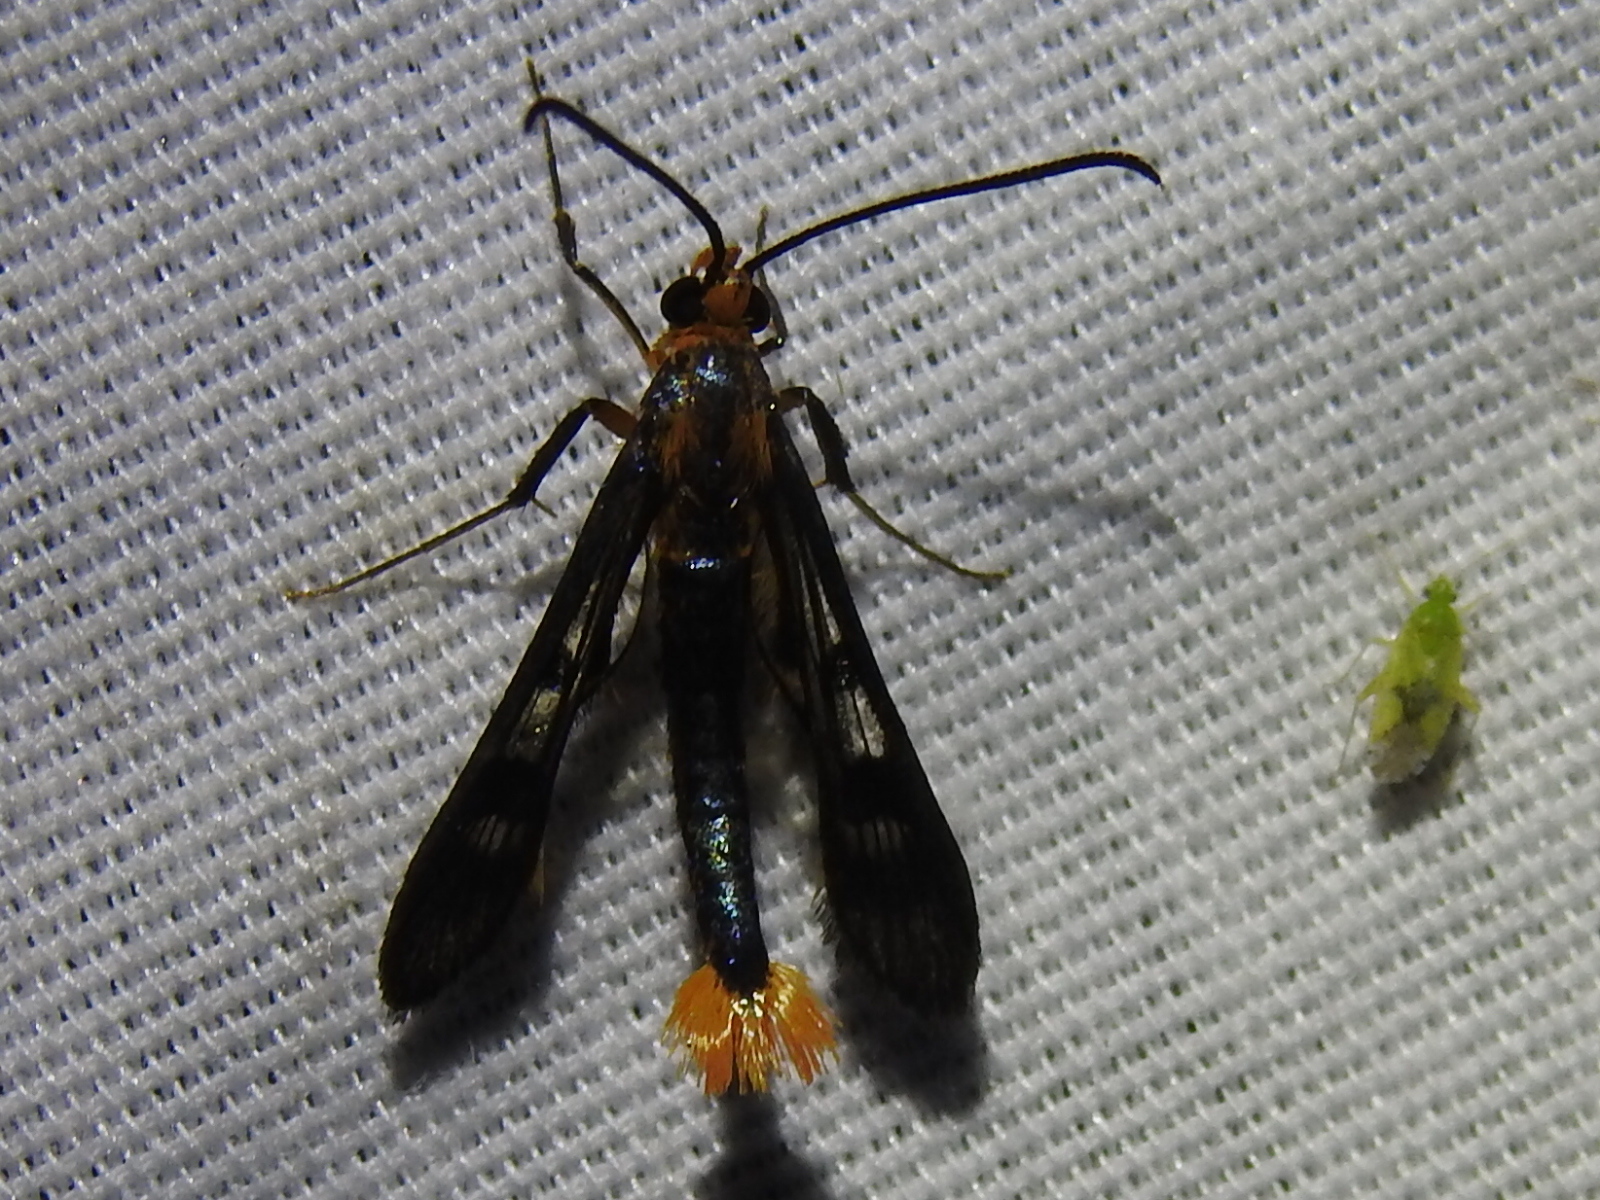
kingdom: Animalia
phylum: Arthropoda
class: Insecta
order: Lepidoptera
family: Sesiidae
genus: Synanthedon
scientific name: Synanthedon acerni
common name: Maple callus borer moth
